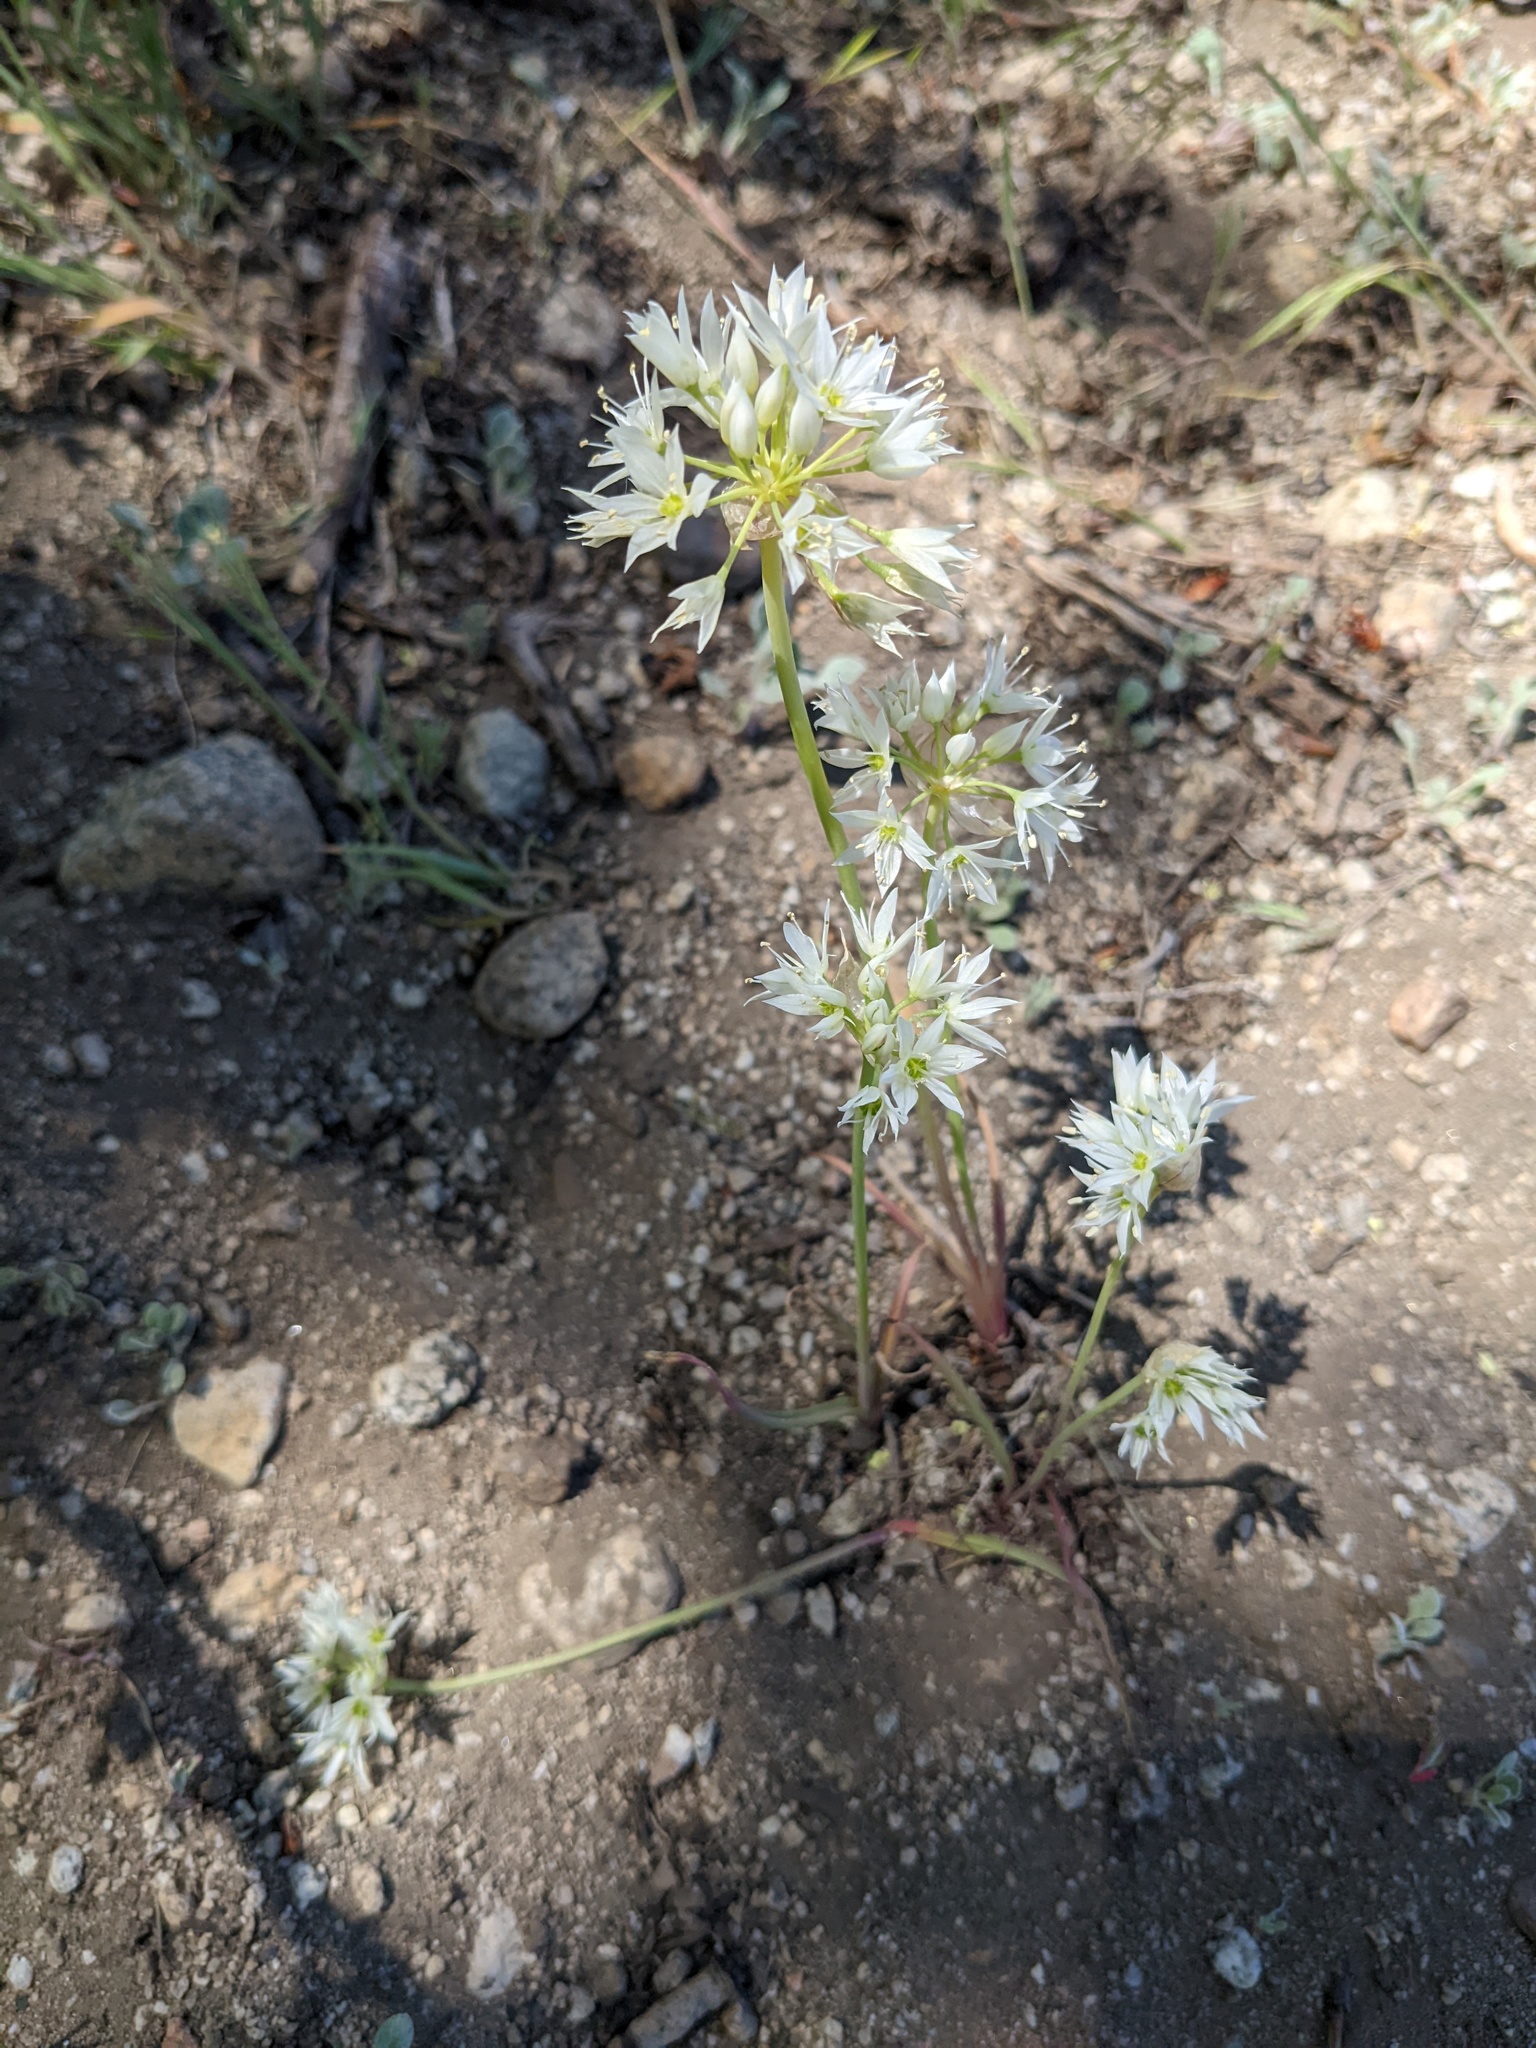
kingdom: Plantae
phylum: Tracheophyta
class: Liliopsida
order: Asparagales
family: Amaryllidaceae
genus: Allium
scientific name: Allium bisceptrum
